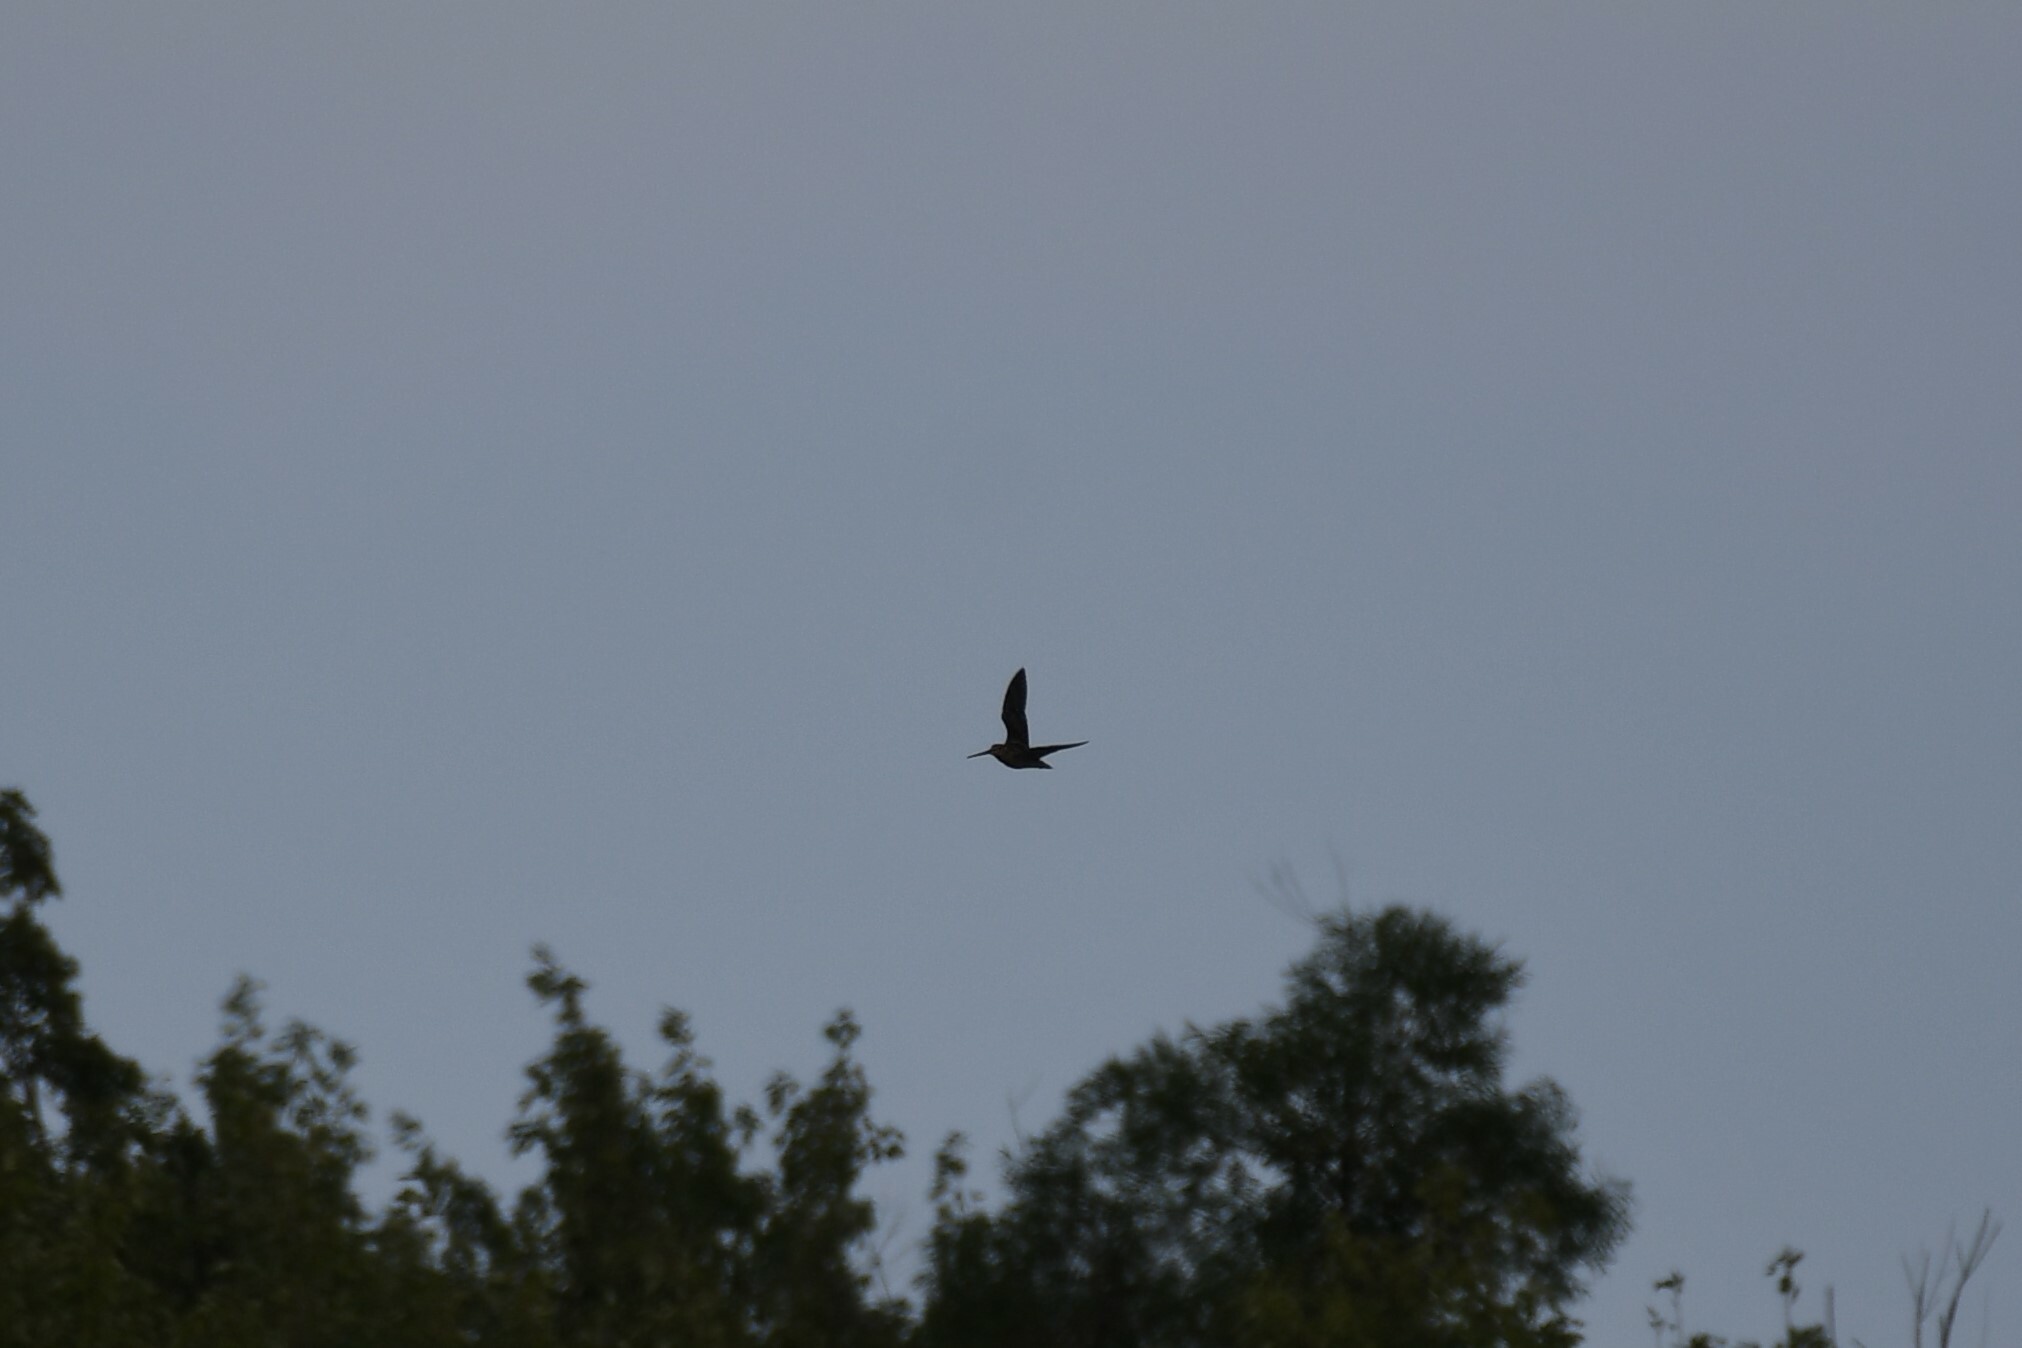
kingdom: Animalia
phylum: Chordata
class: Aves
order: Charadriiformes
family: Scolopacidae
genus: Gallinago
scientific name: Gallinago delicata
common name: Wilson's snipe
